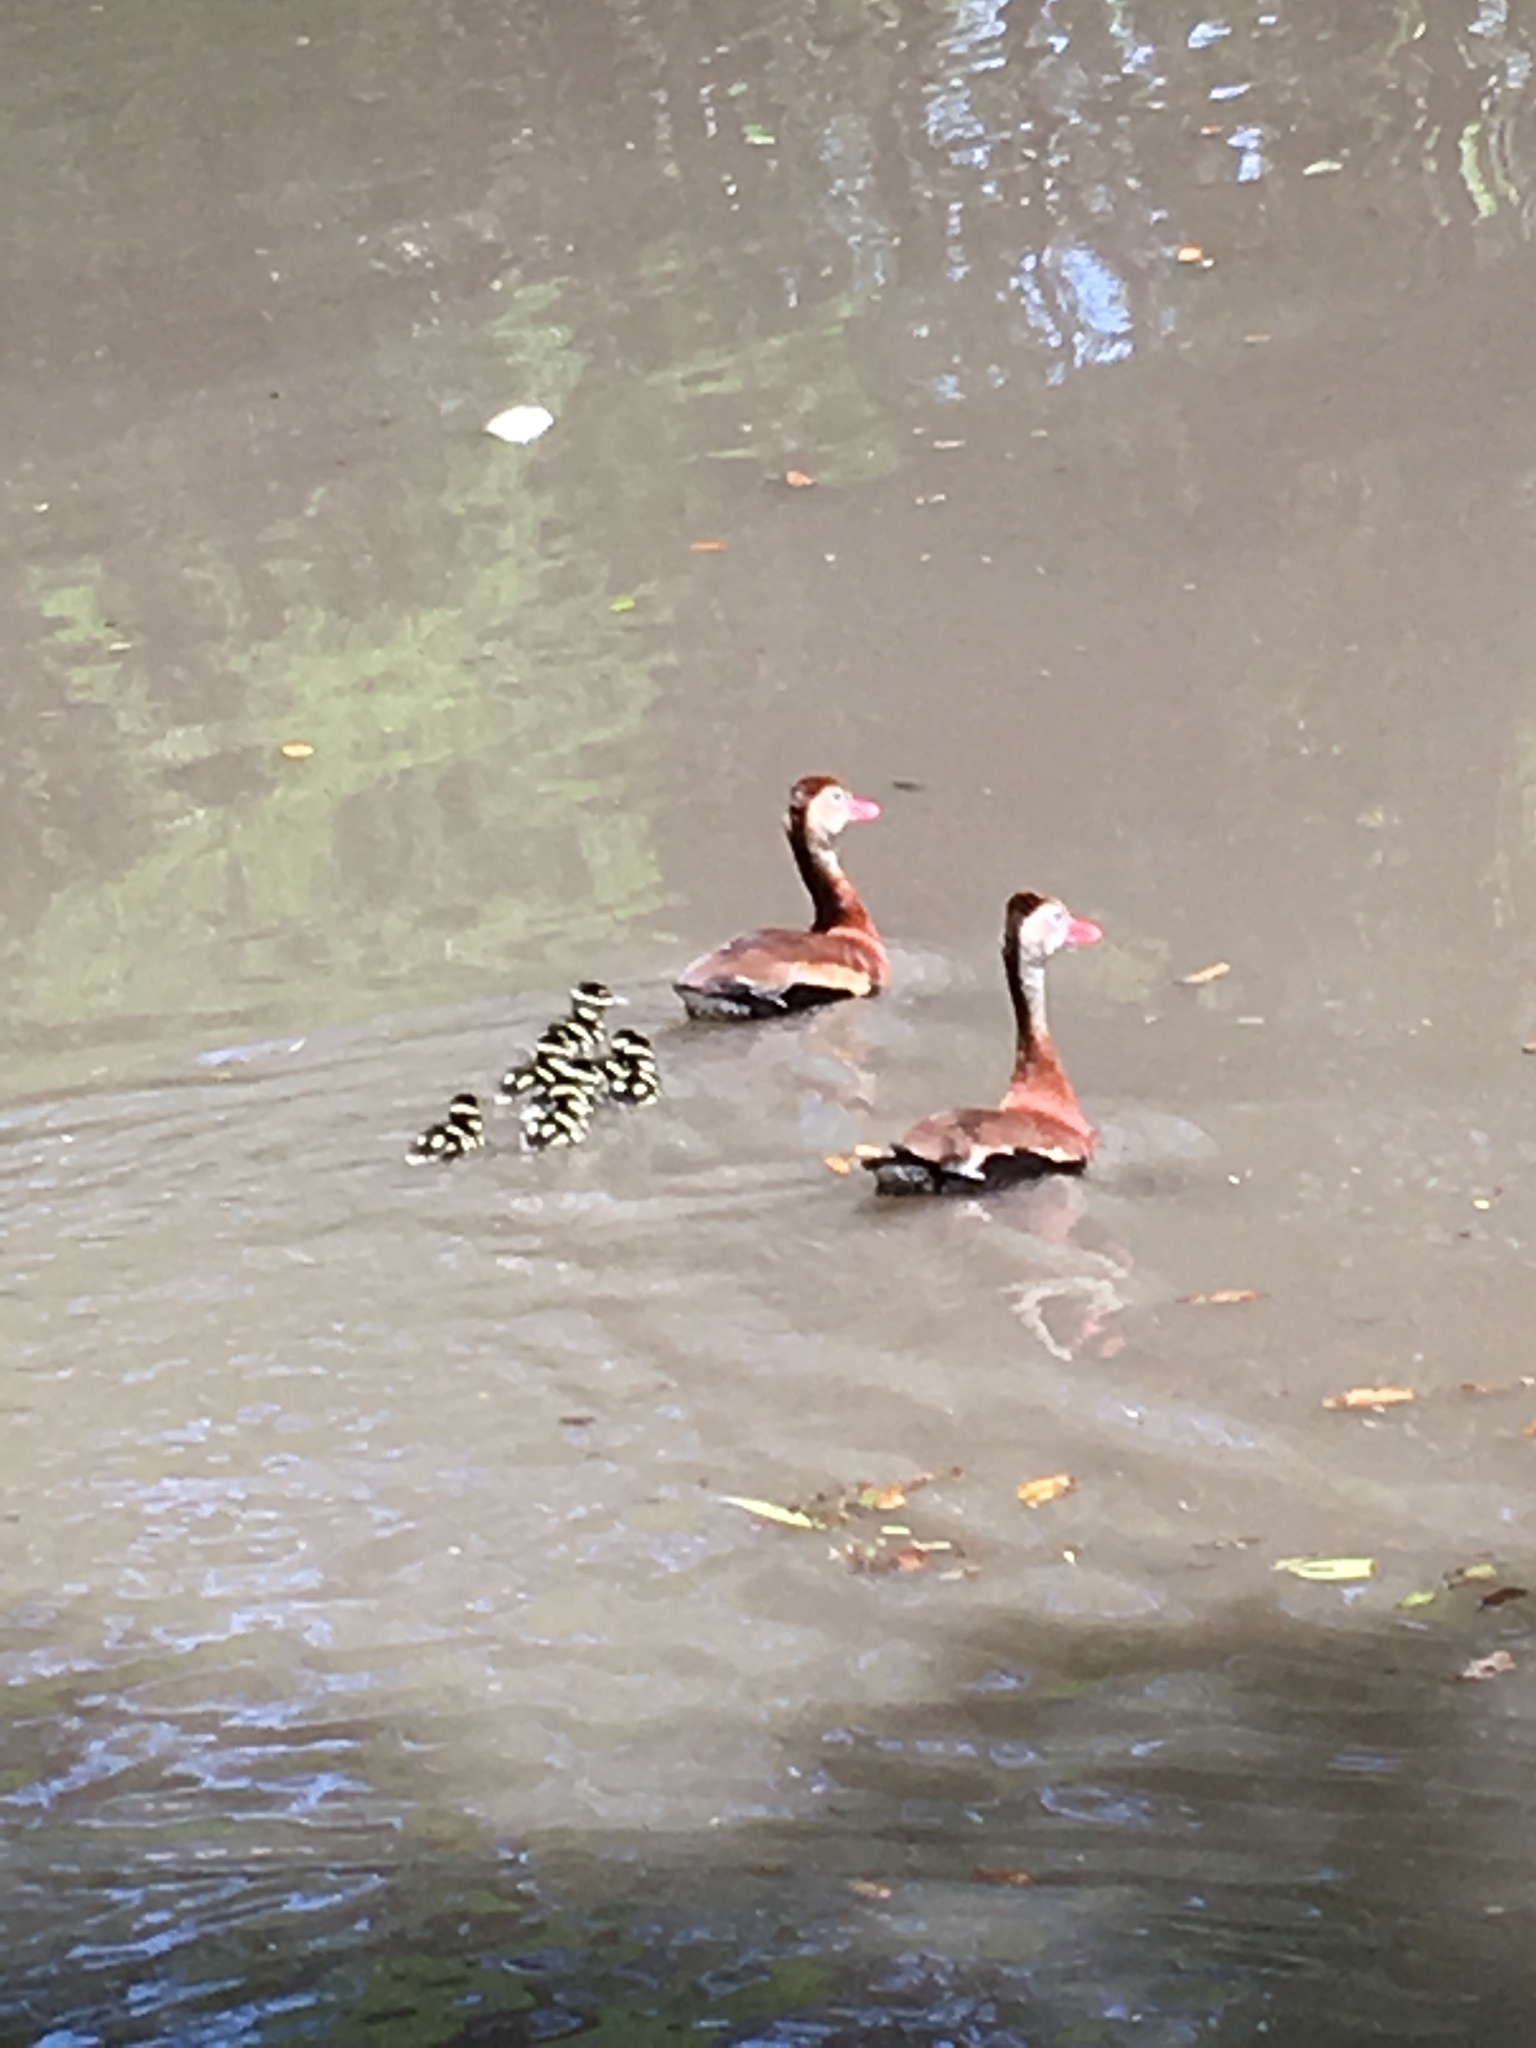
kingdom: Animalia
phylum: Chordata
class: Aves
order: Anseriformes
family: Anatidae
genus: Dendrocygna
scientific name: Dendrocygna autumnalis
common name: Black-bellied whistling duck
